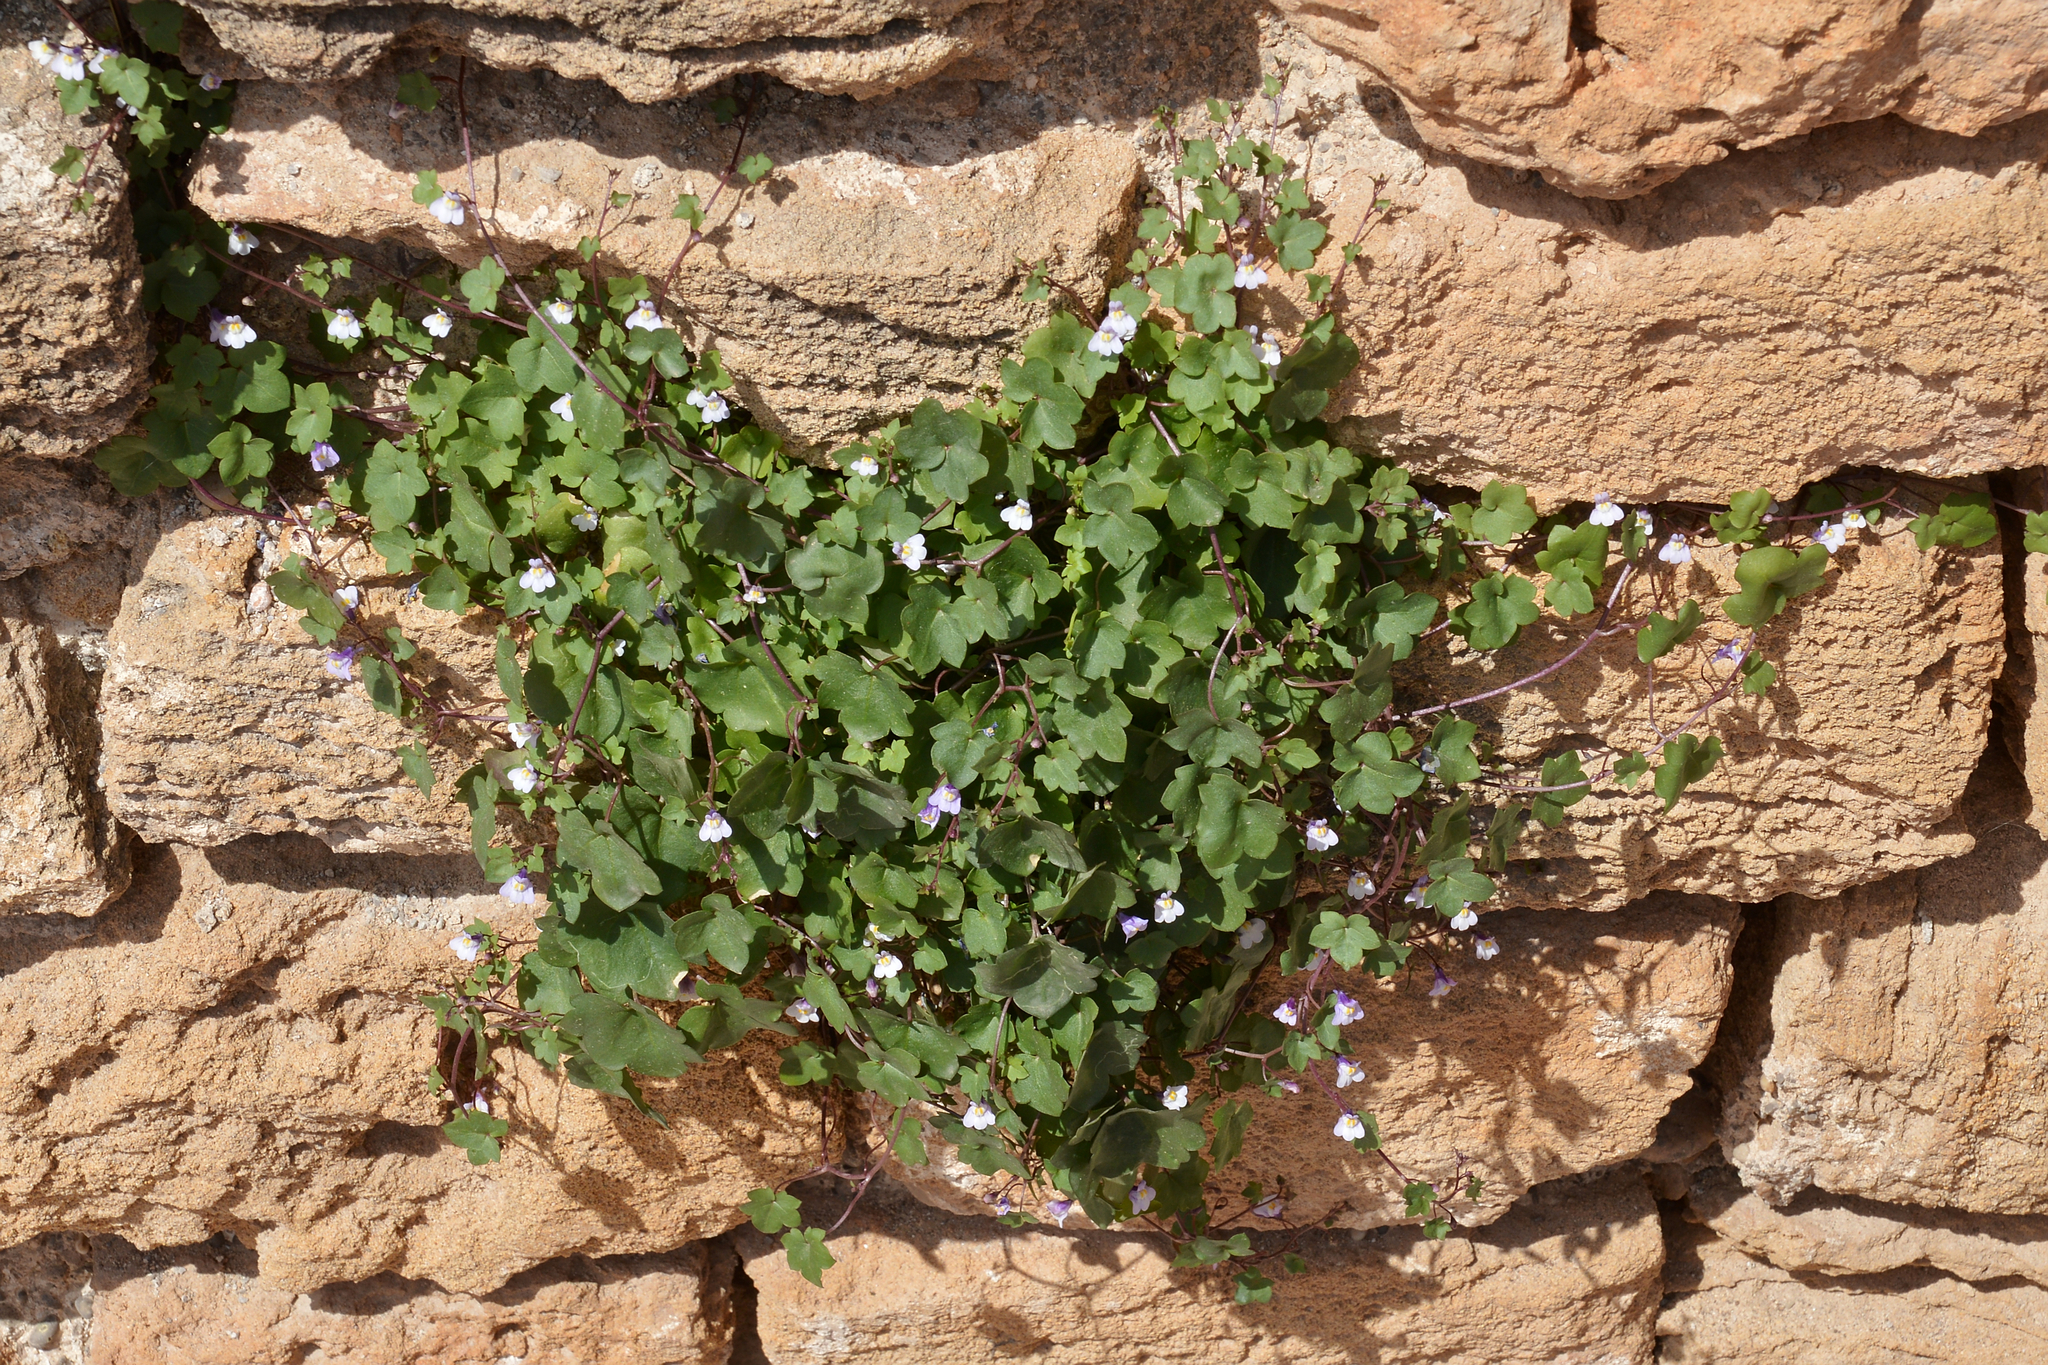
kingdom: Plantae
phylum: Tracheophyta
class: Magnoliopsida
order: Lamiales
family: Plantaginaceae
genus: Cymbalaria
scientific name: Cymbalaria muralis
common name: Ivy-leaved toadflax
